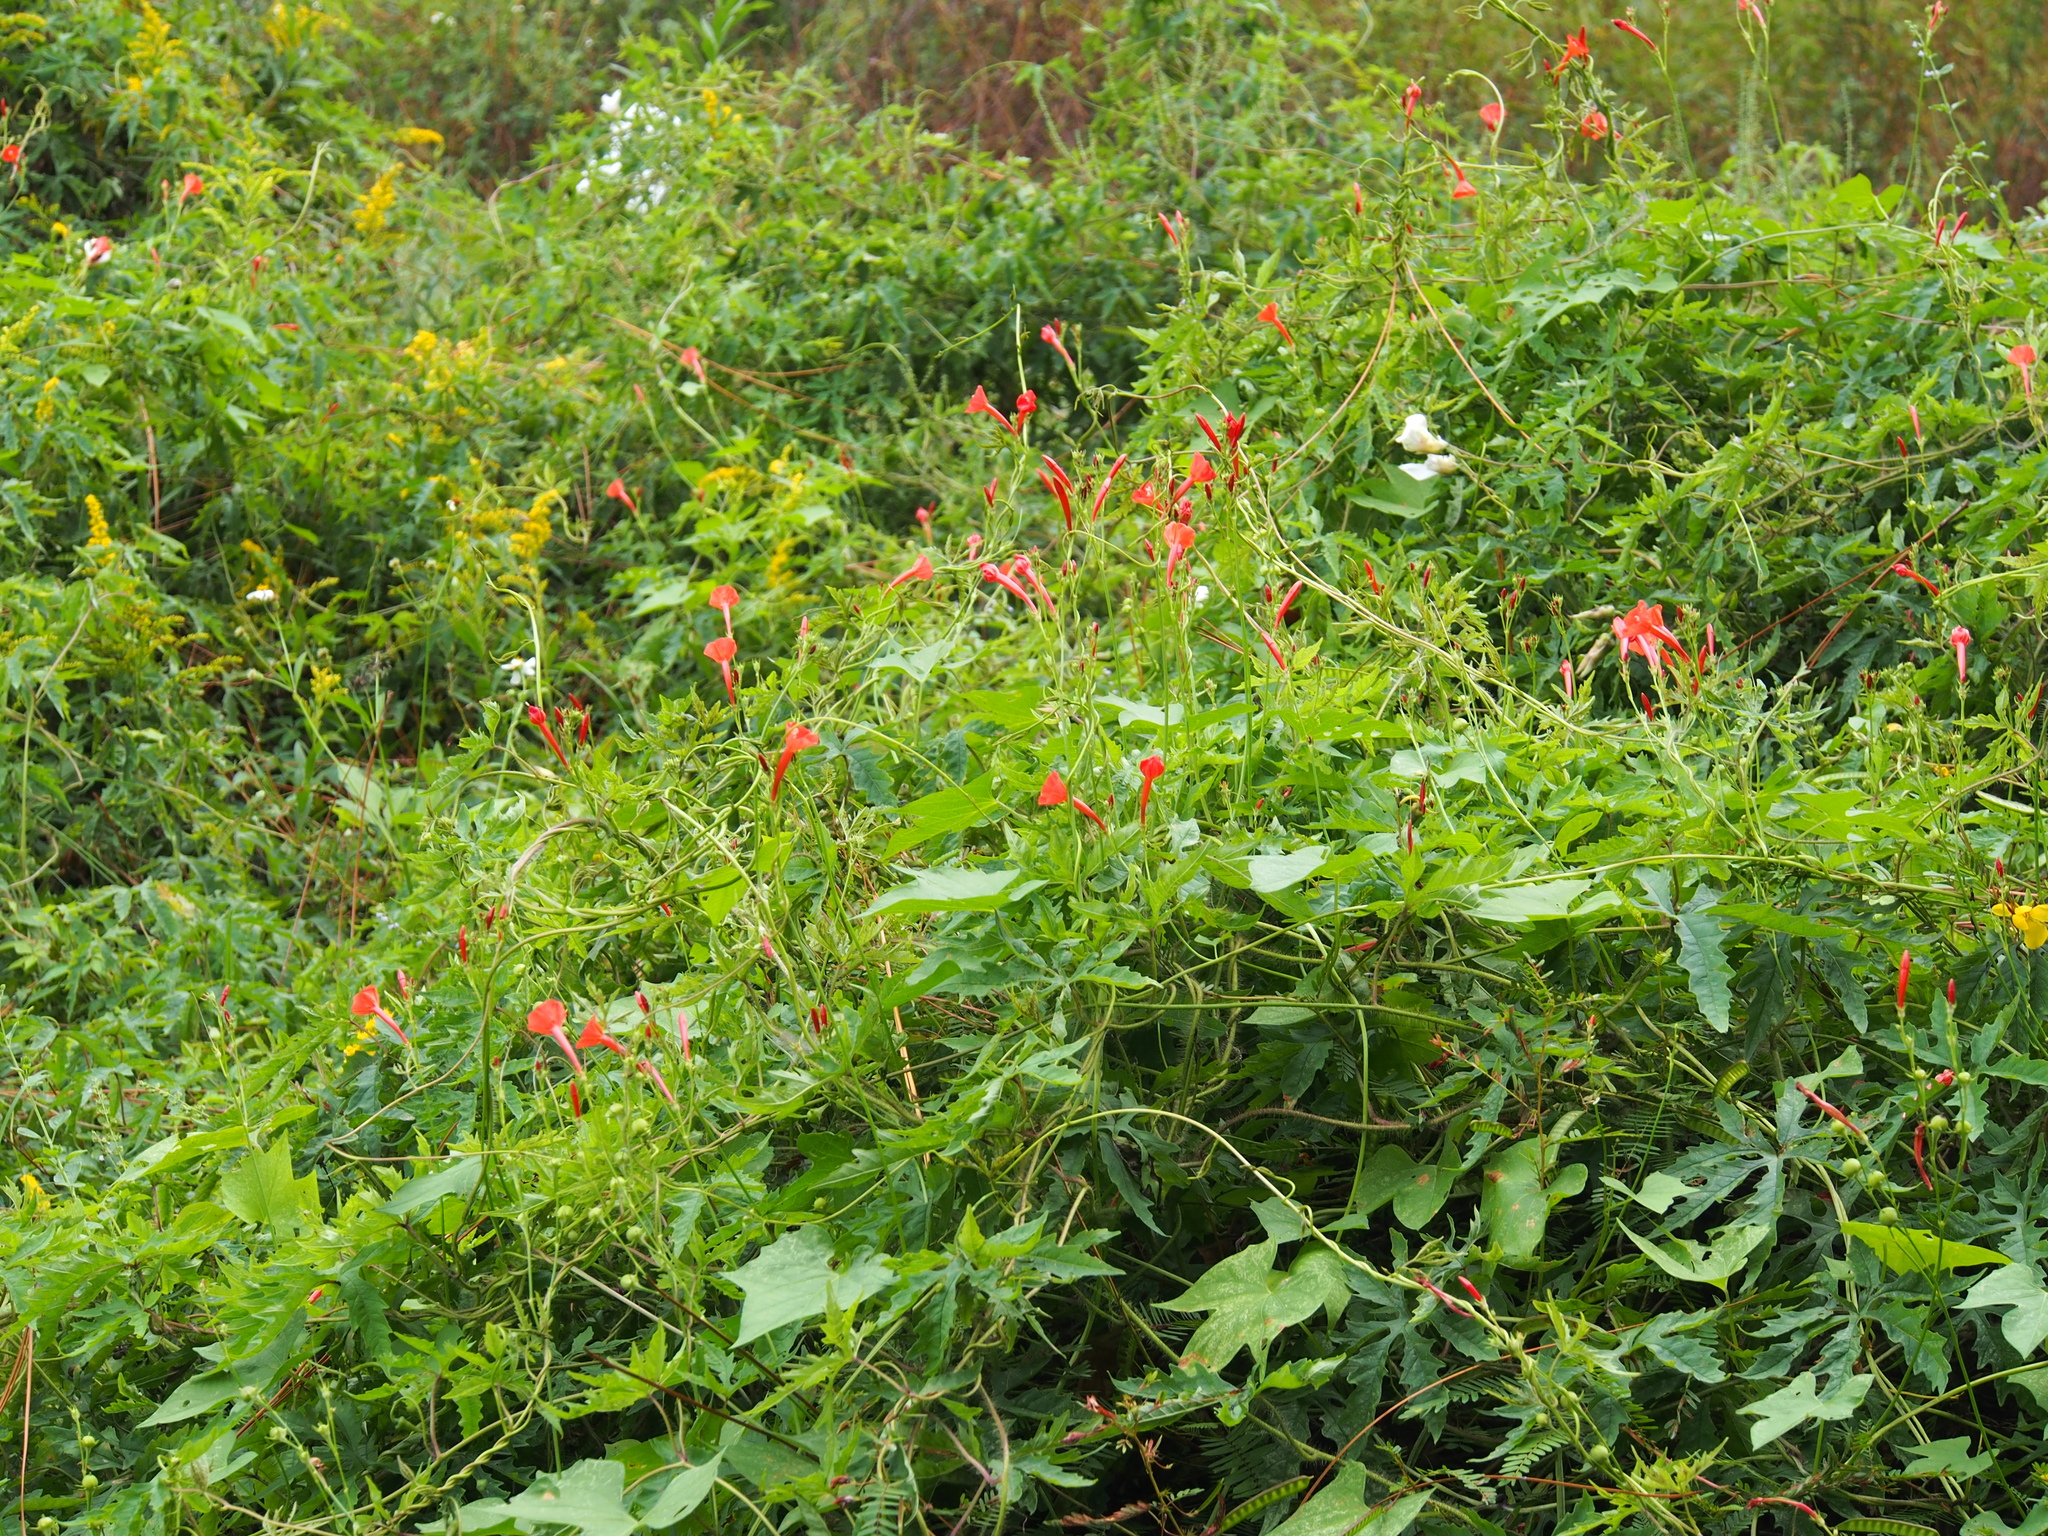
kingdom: Plantae
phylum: Tracheophyta
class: Magnoliopsida
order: Solanales
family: Convolvulaceae
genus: Ipomoea
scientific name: Ipomoea hederifolia
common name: Ivy-leaf morning-glory
